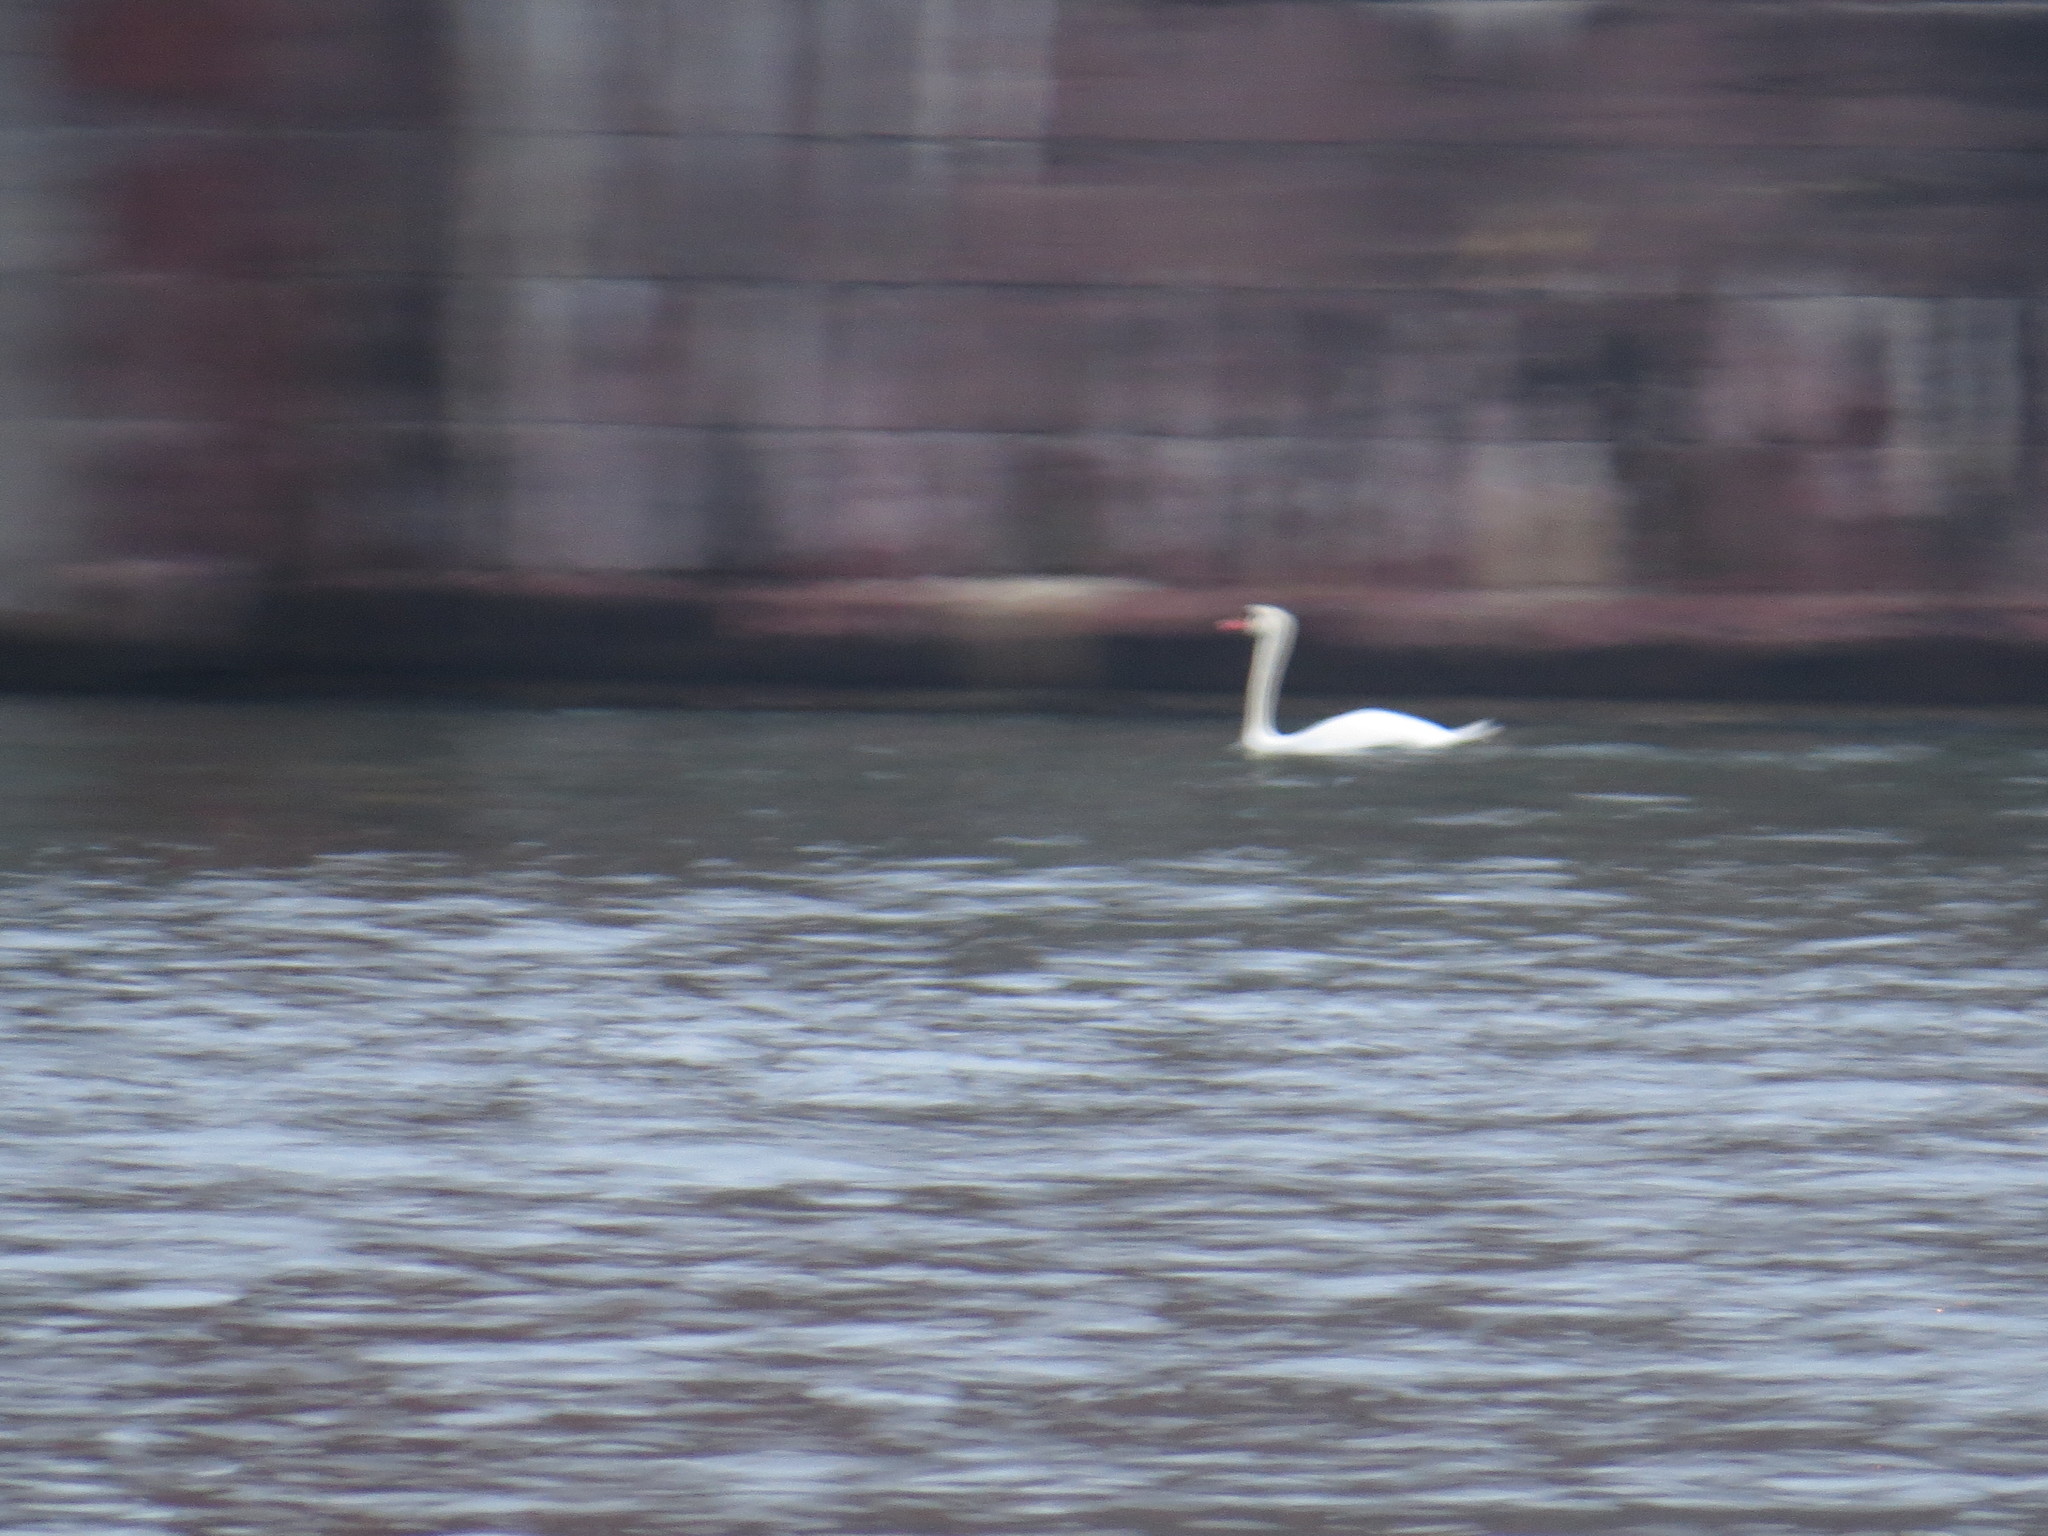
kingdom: Animalia
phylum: Chordata
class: Aves
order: Anseriformes
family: Anatidae
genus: Cygnus
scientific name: Cygnus olor
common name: Mute swan
